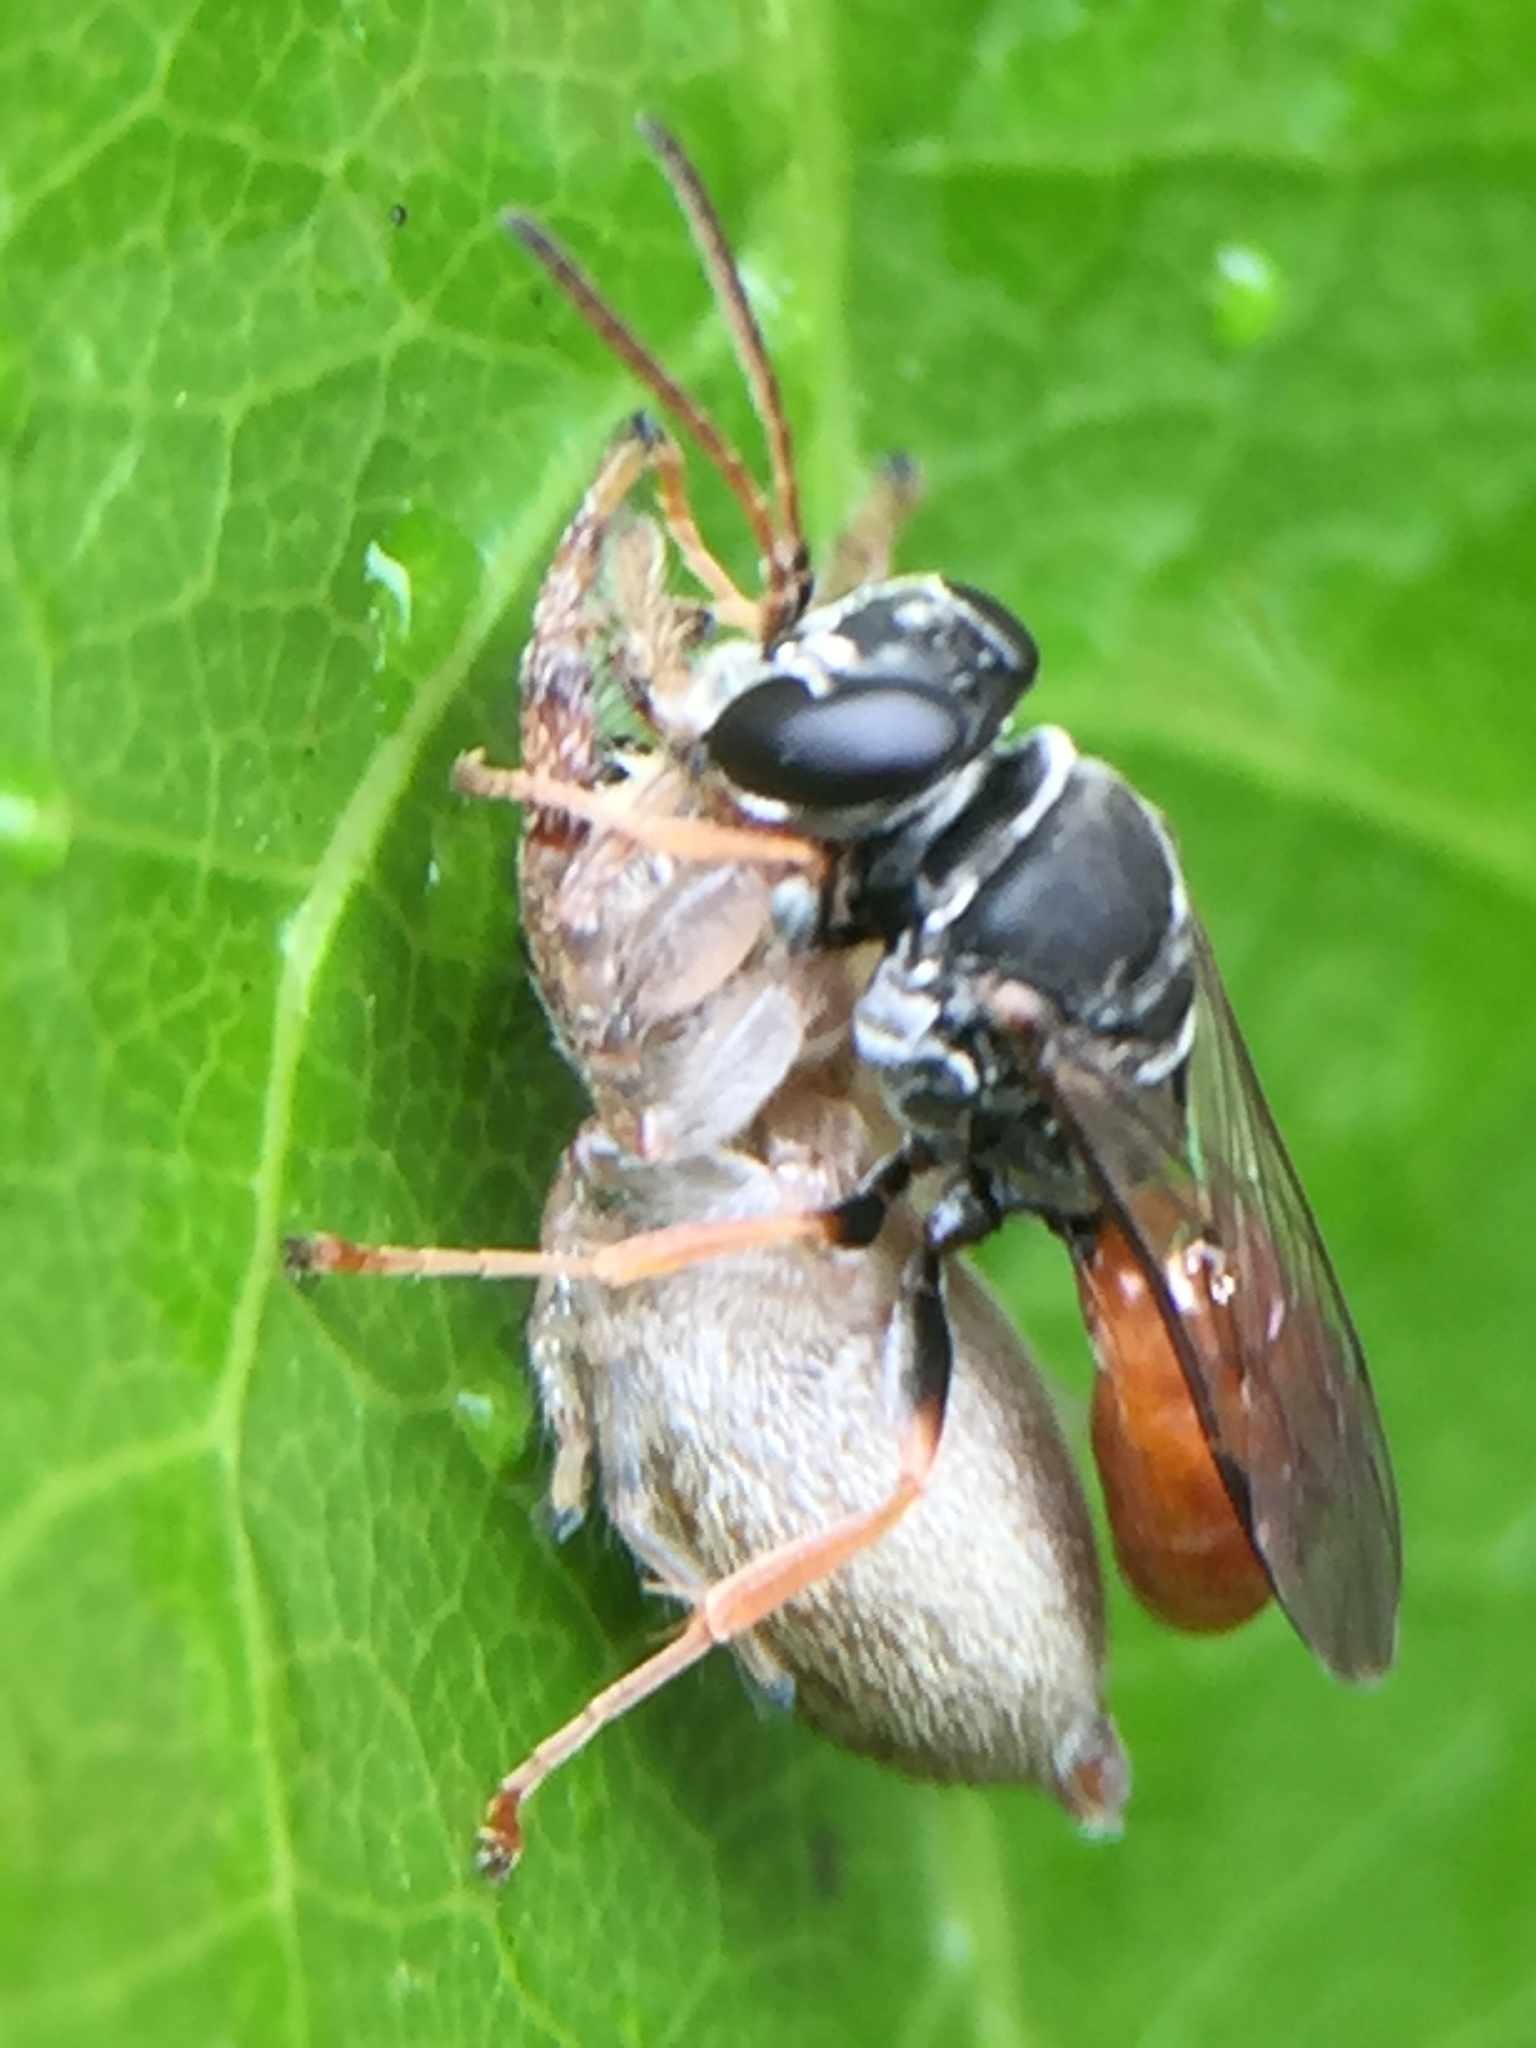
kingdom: Animalia
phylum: Arthropoda
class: Insecta
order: Hymenoptera
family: Crabronidae
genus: Pison
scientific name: Pison peletieri
